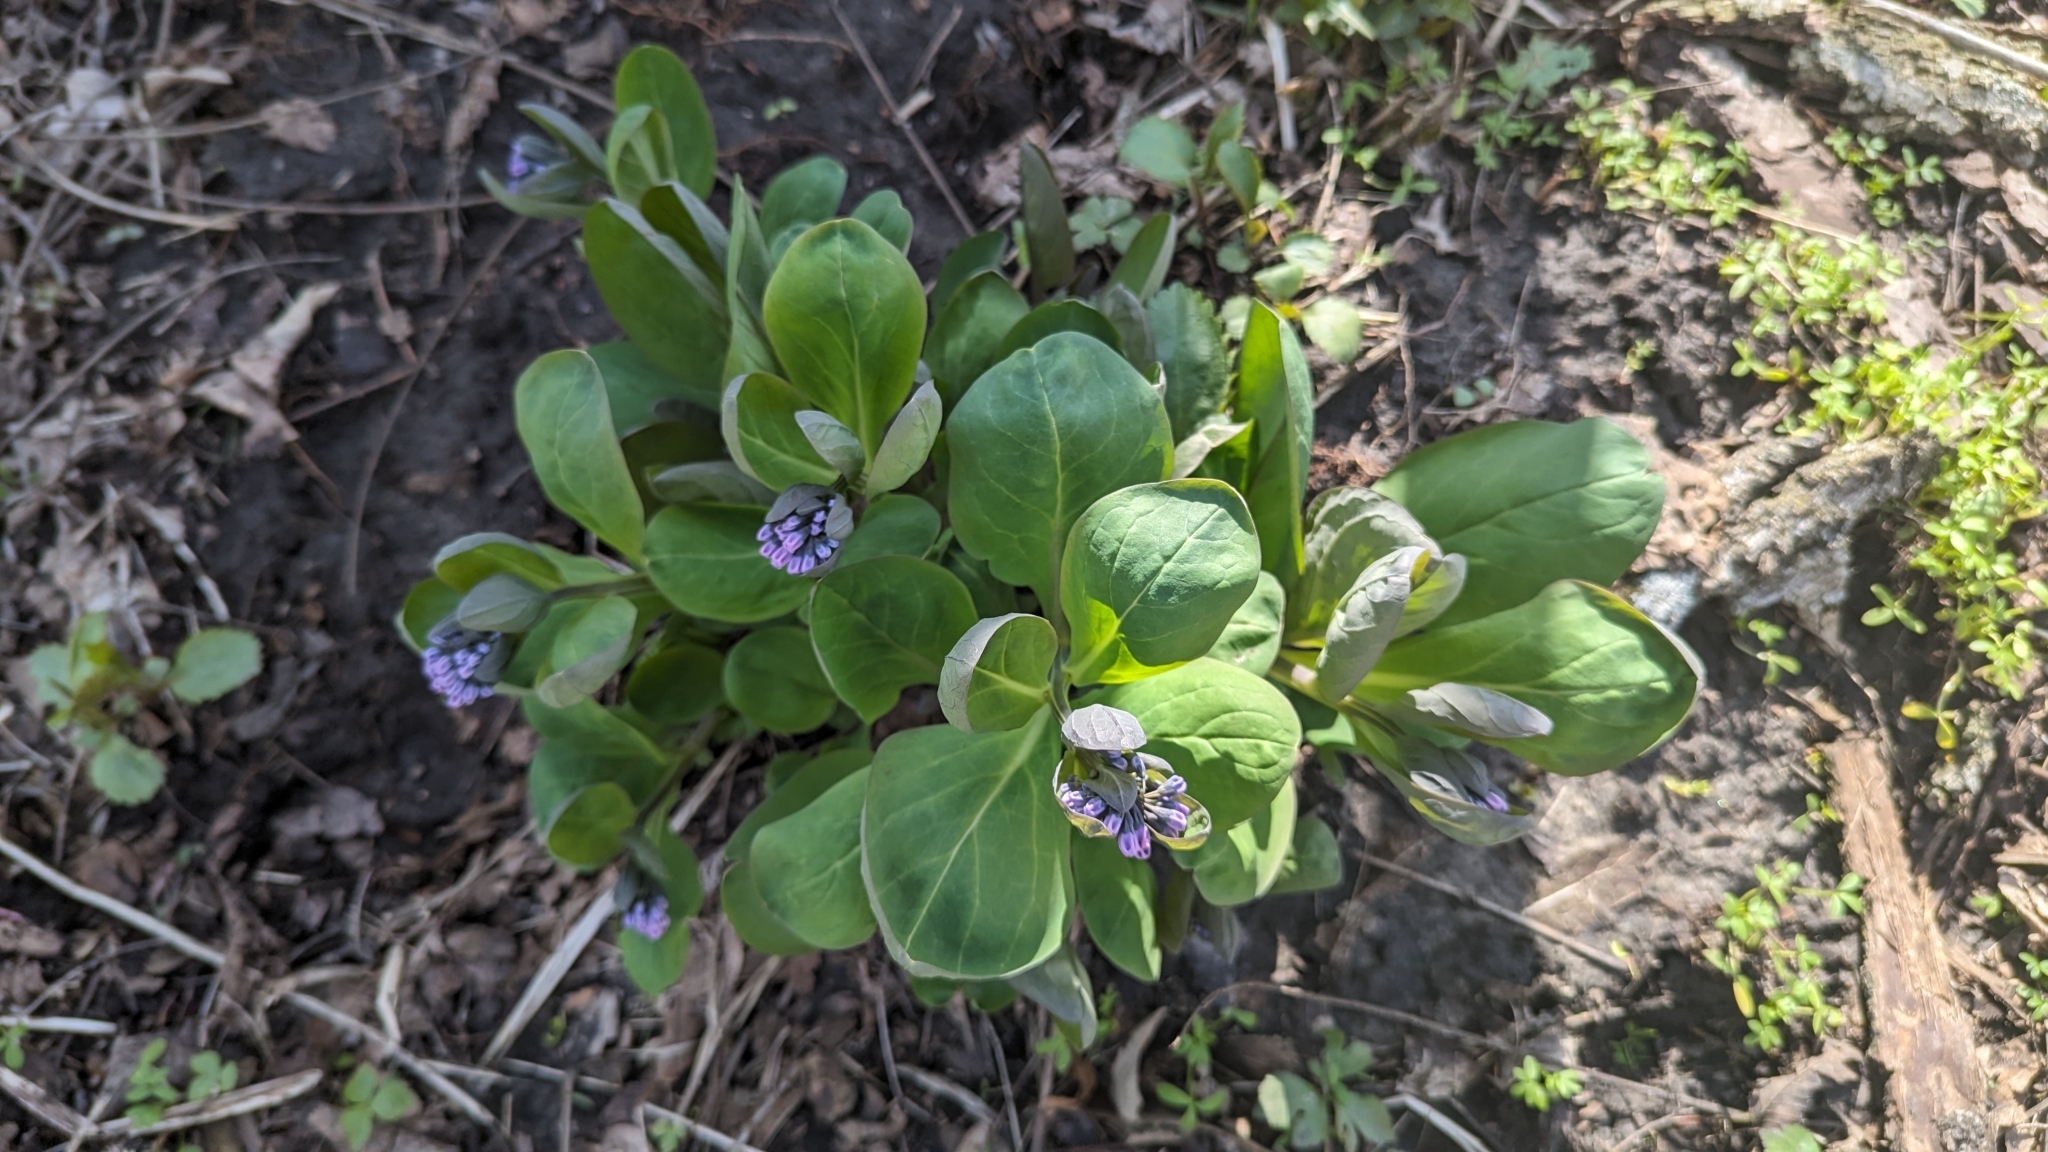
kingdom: Plantae
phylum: Tracheophyta
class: Magnoliopsida
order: Boraginales
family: Boraginaceae
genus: Mertensia
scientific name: Mertensia virginica
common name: Virginia bluebells
